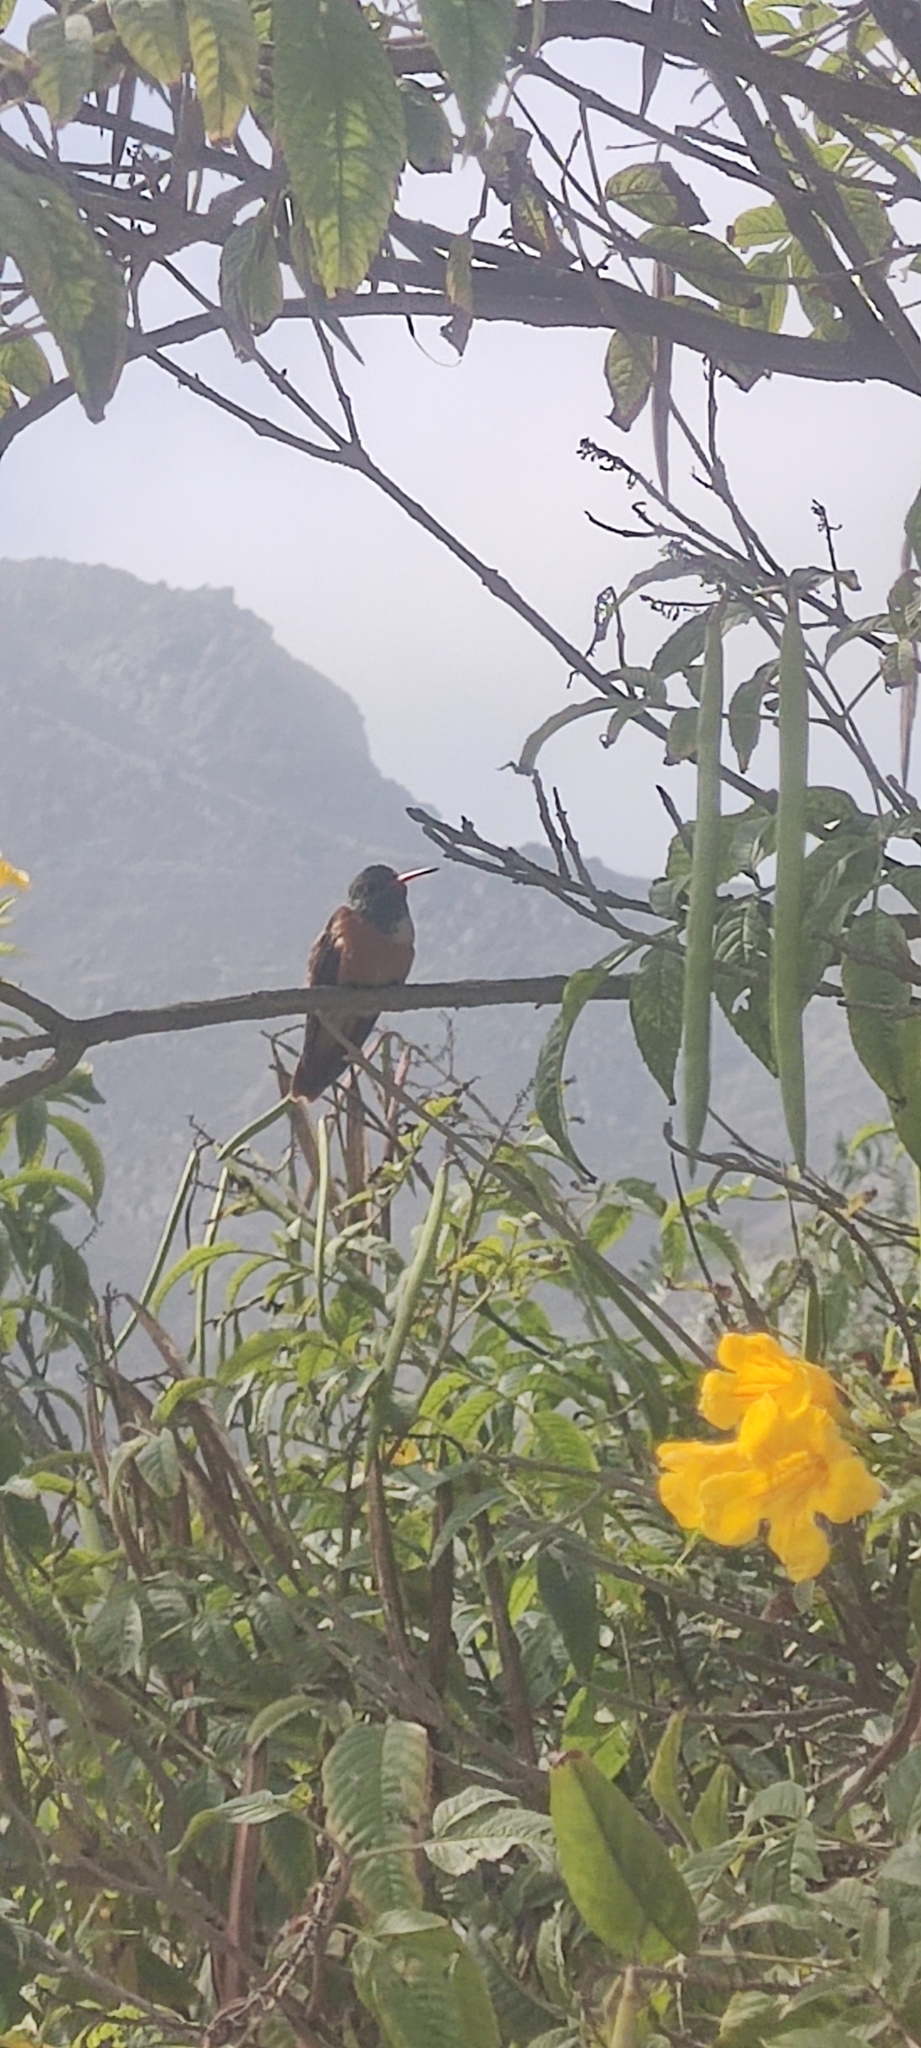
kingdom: Animalia
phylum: Chordata
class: Aves
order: Apodiformes
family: Trochilidae
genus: Amazilis
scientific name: Amazilis amazilia
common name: Amazilia hummingbird
